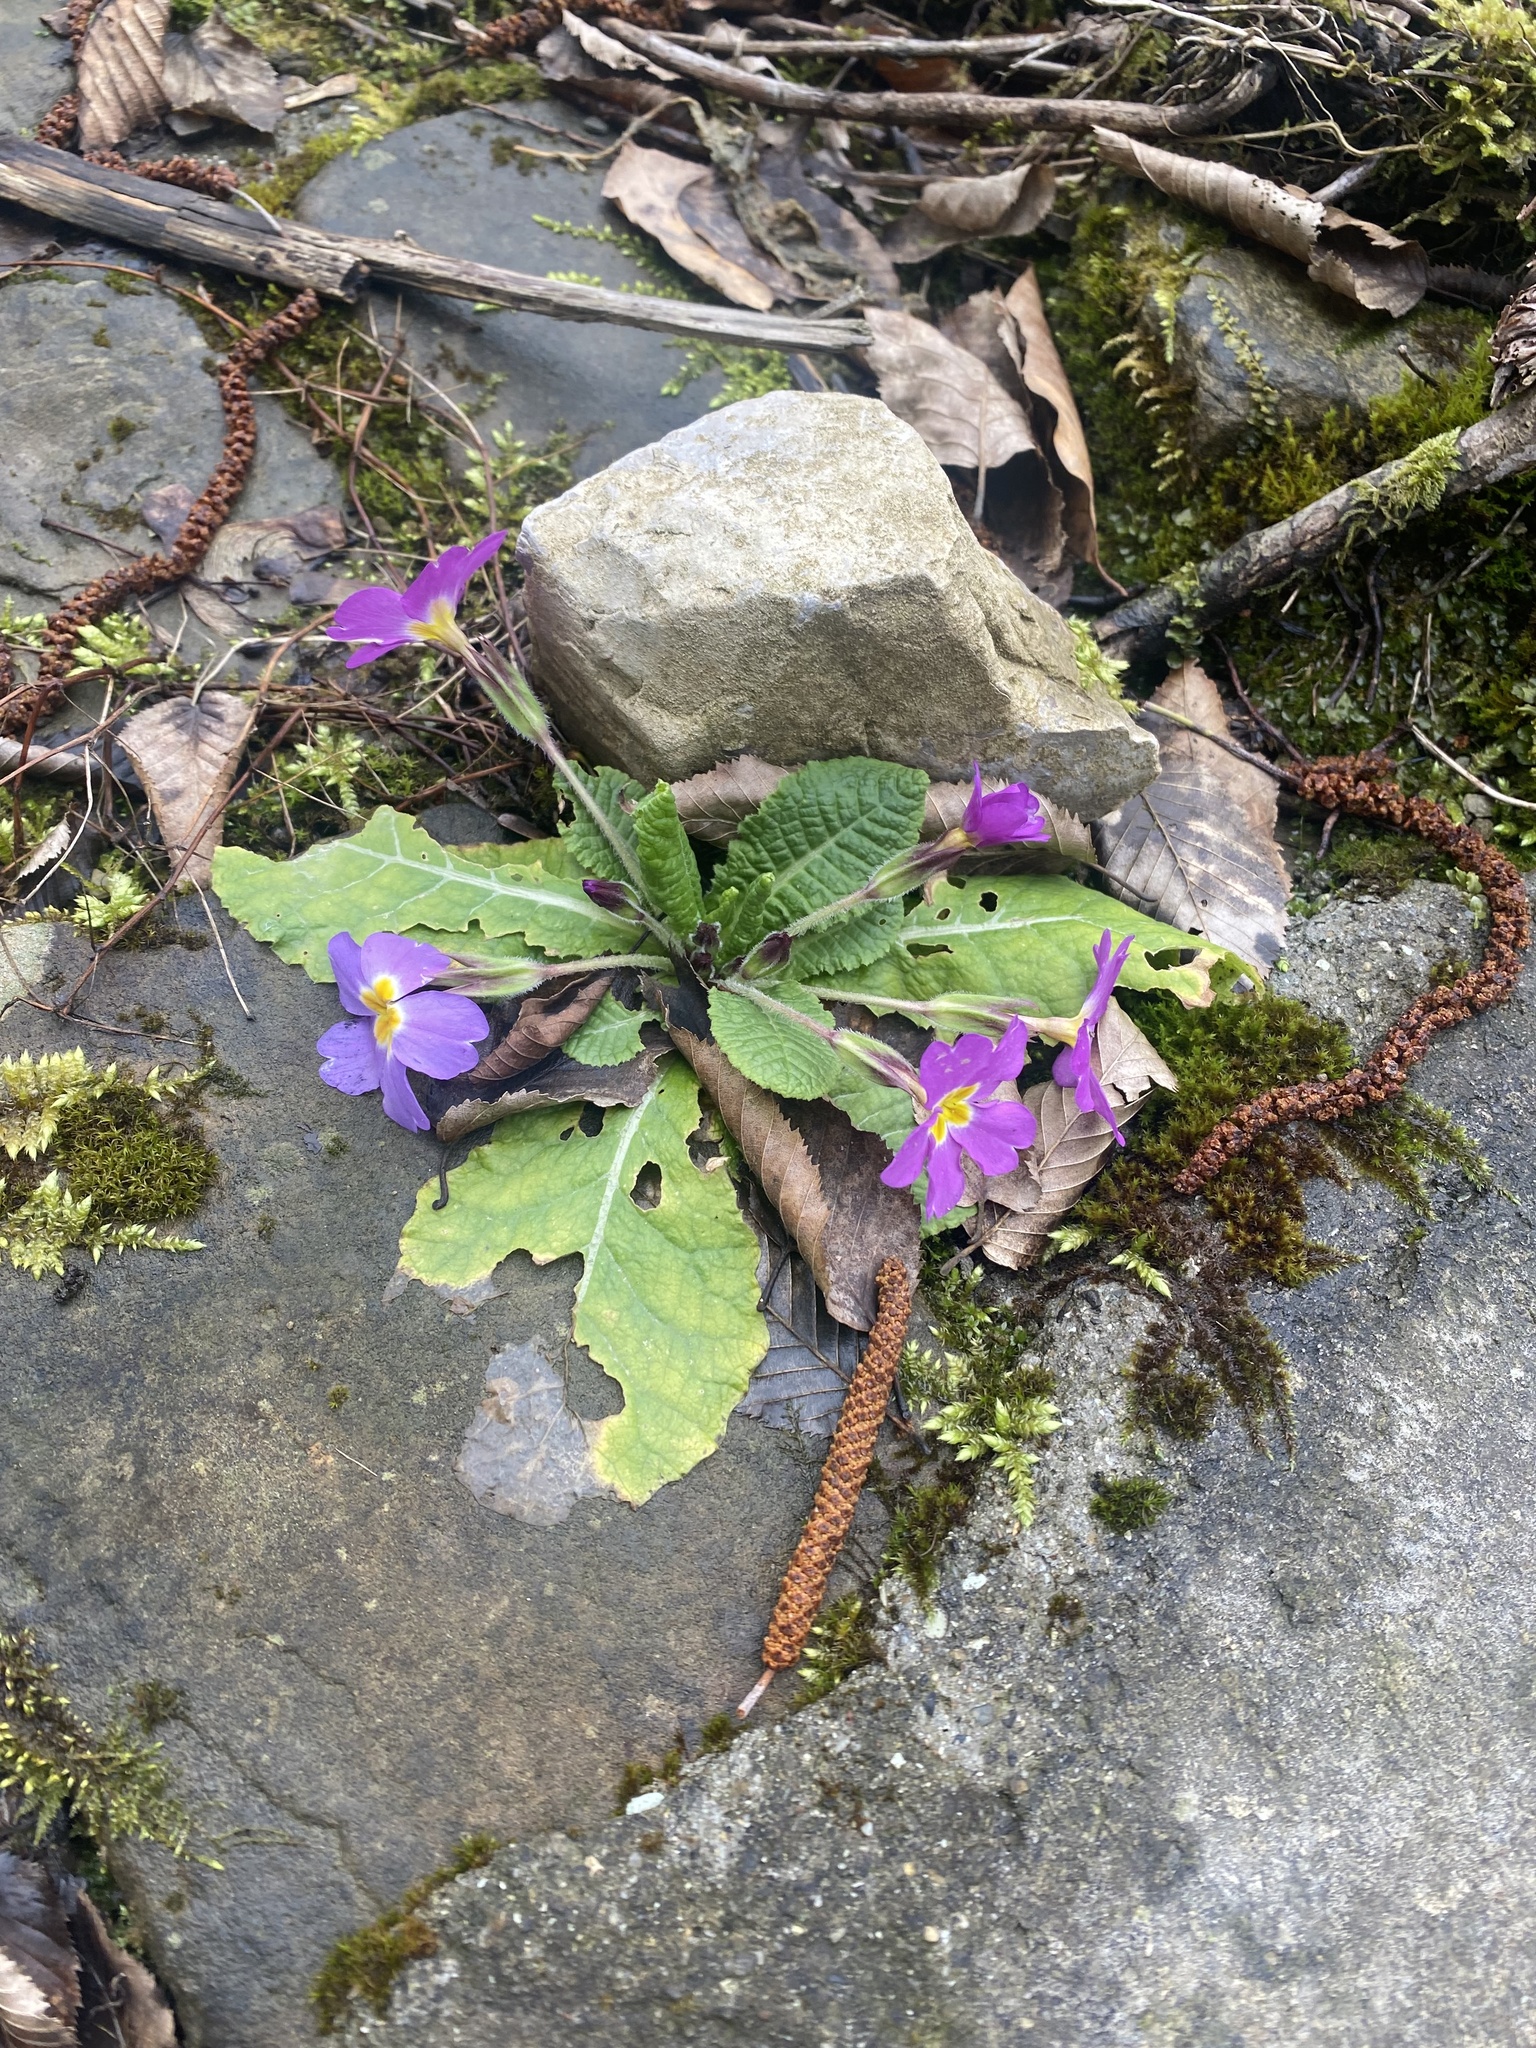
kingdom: Plantae
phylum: Tracheophyta
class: Magnoliopsida
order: Ericales
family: Primulaceae
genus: Primula
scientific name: Primula vulgaris
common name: Primrose
